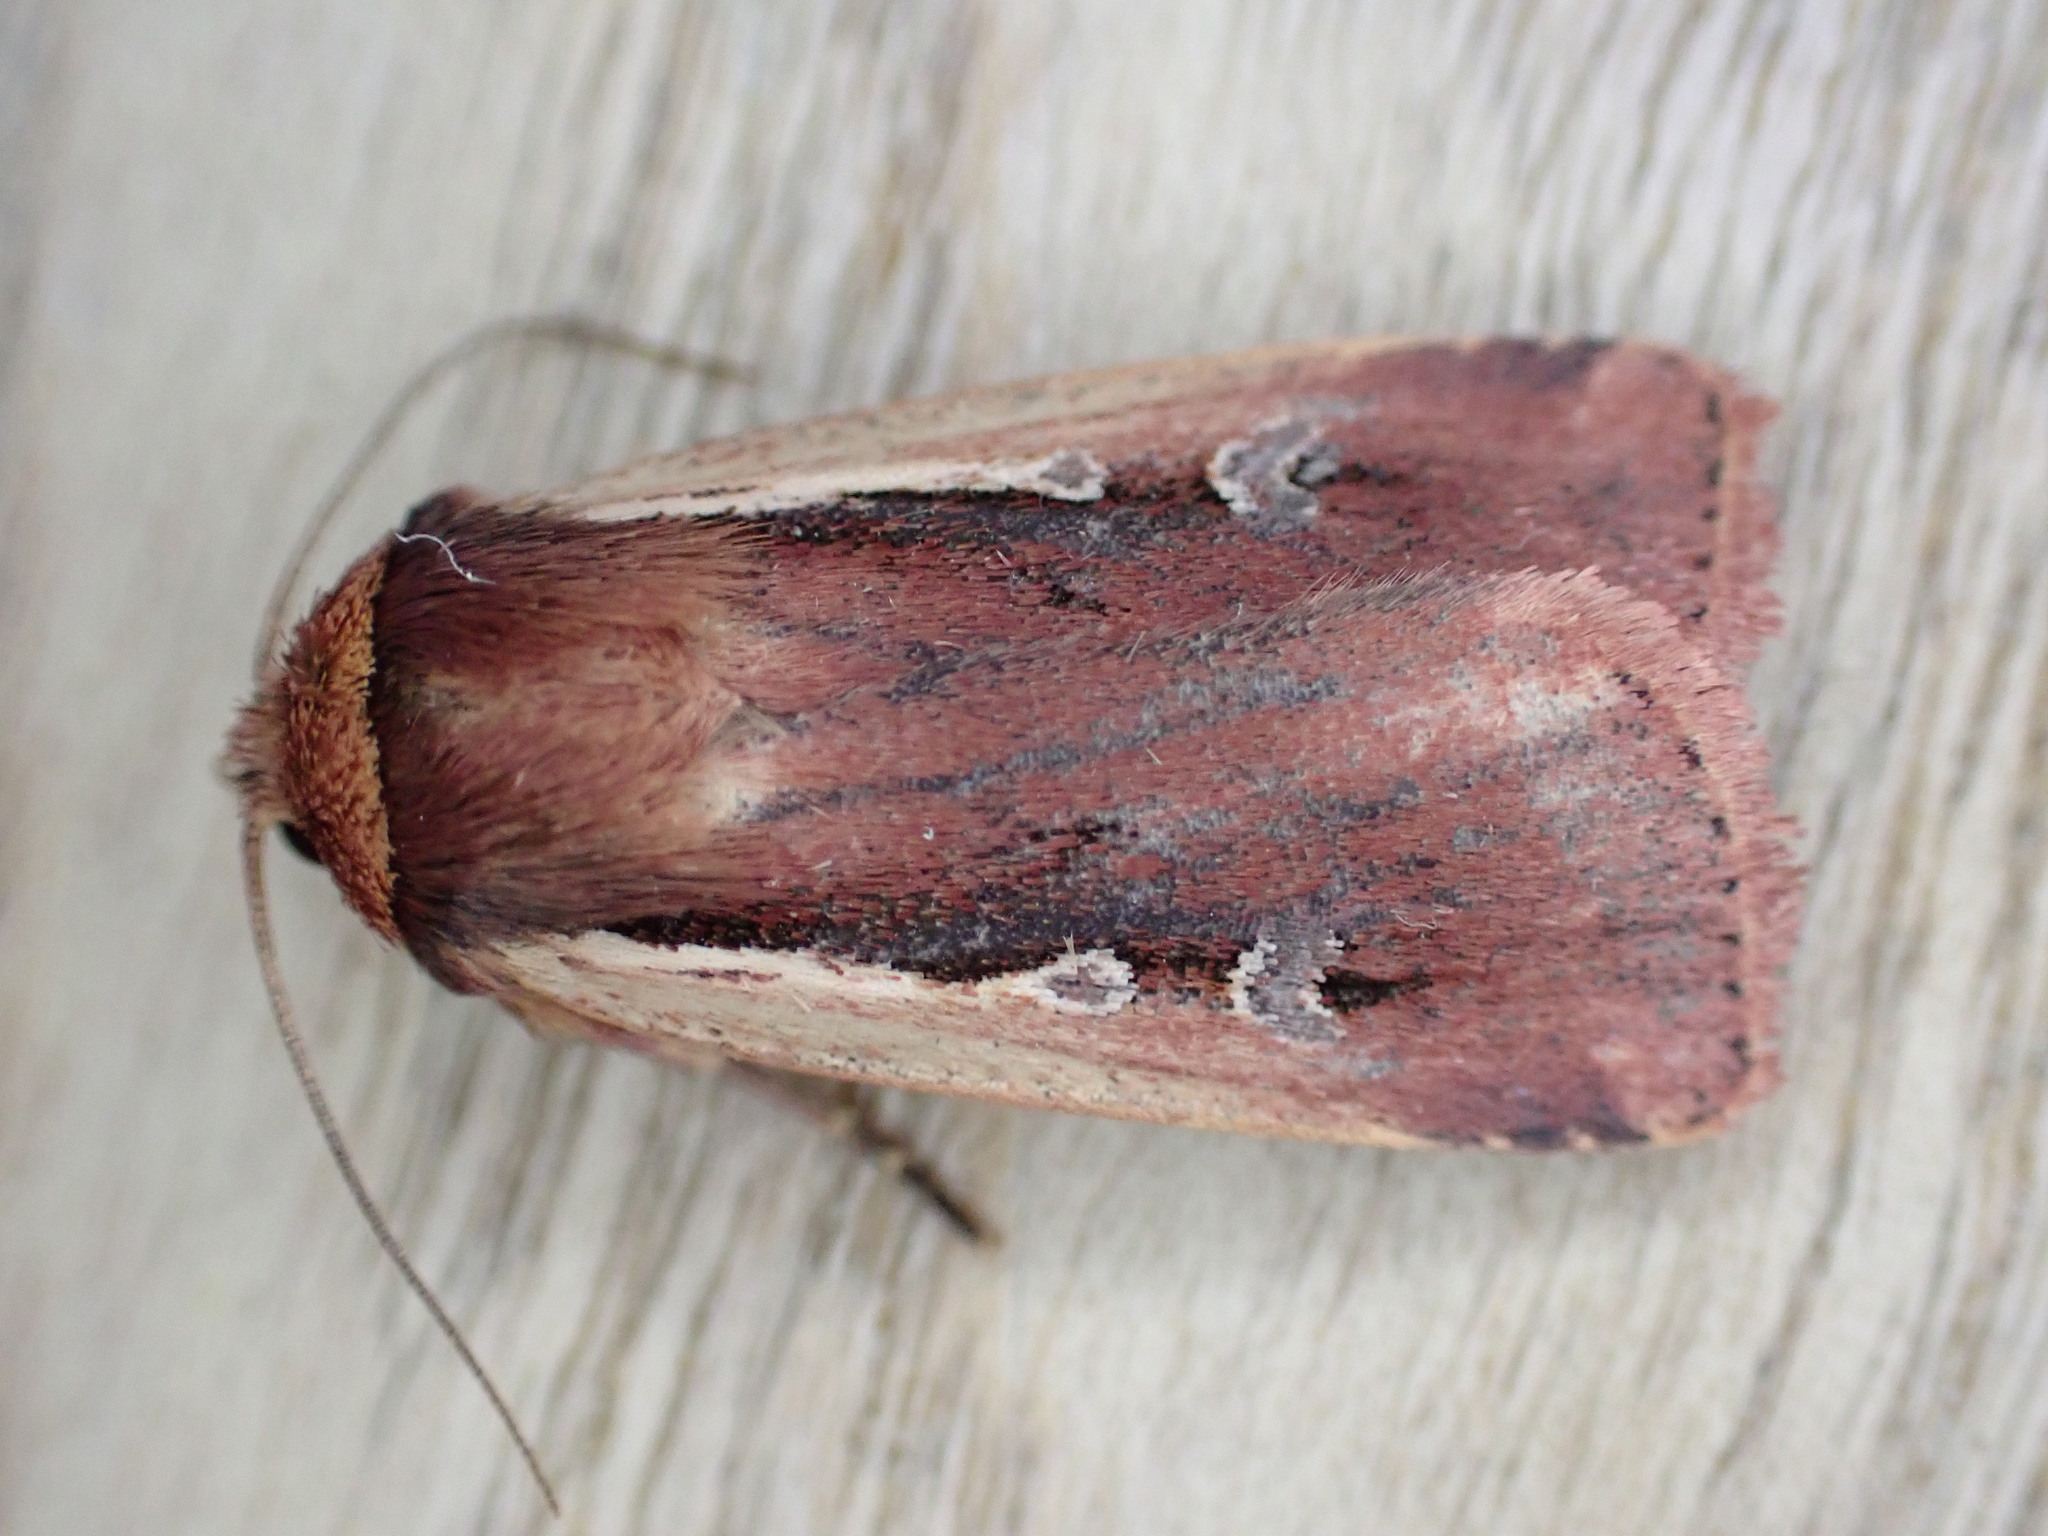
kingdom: Animalia
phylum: Arthropoda
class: Insecta
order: Lepidoptera
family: Noctuidae
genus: Ochropleura
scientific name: Ochropleura plecta
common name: Flame shoulder
